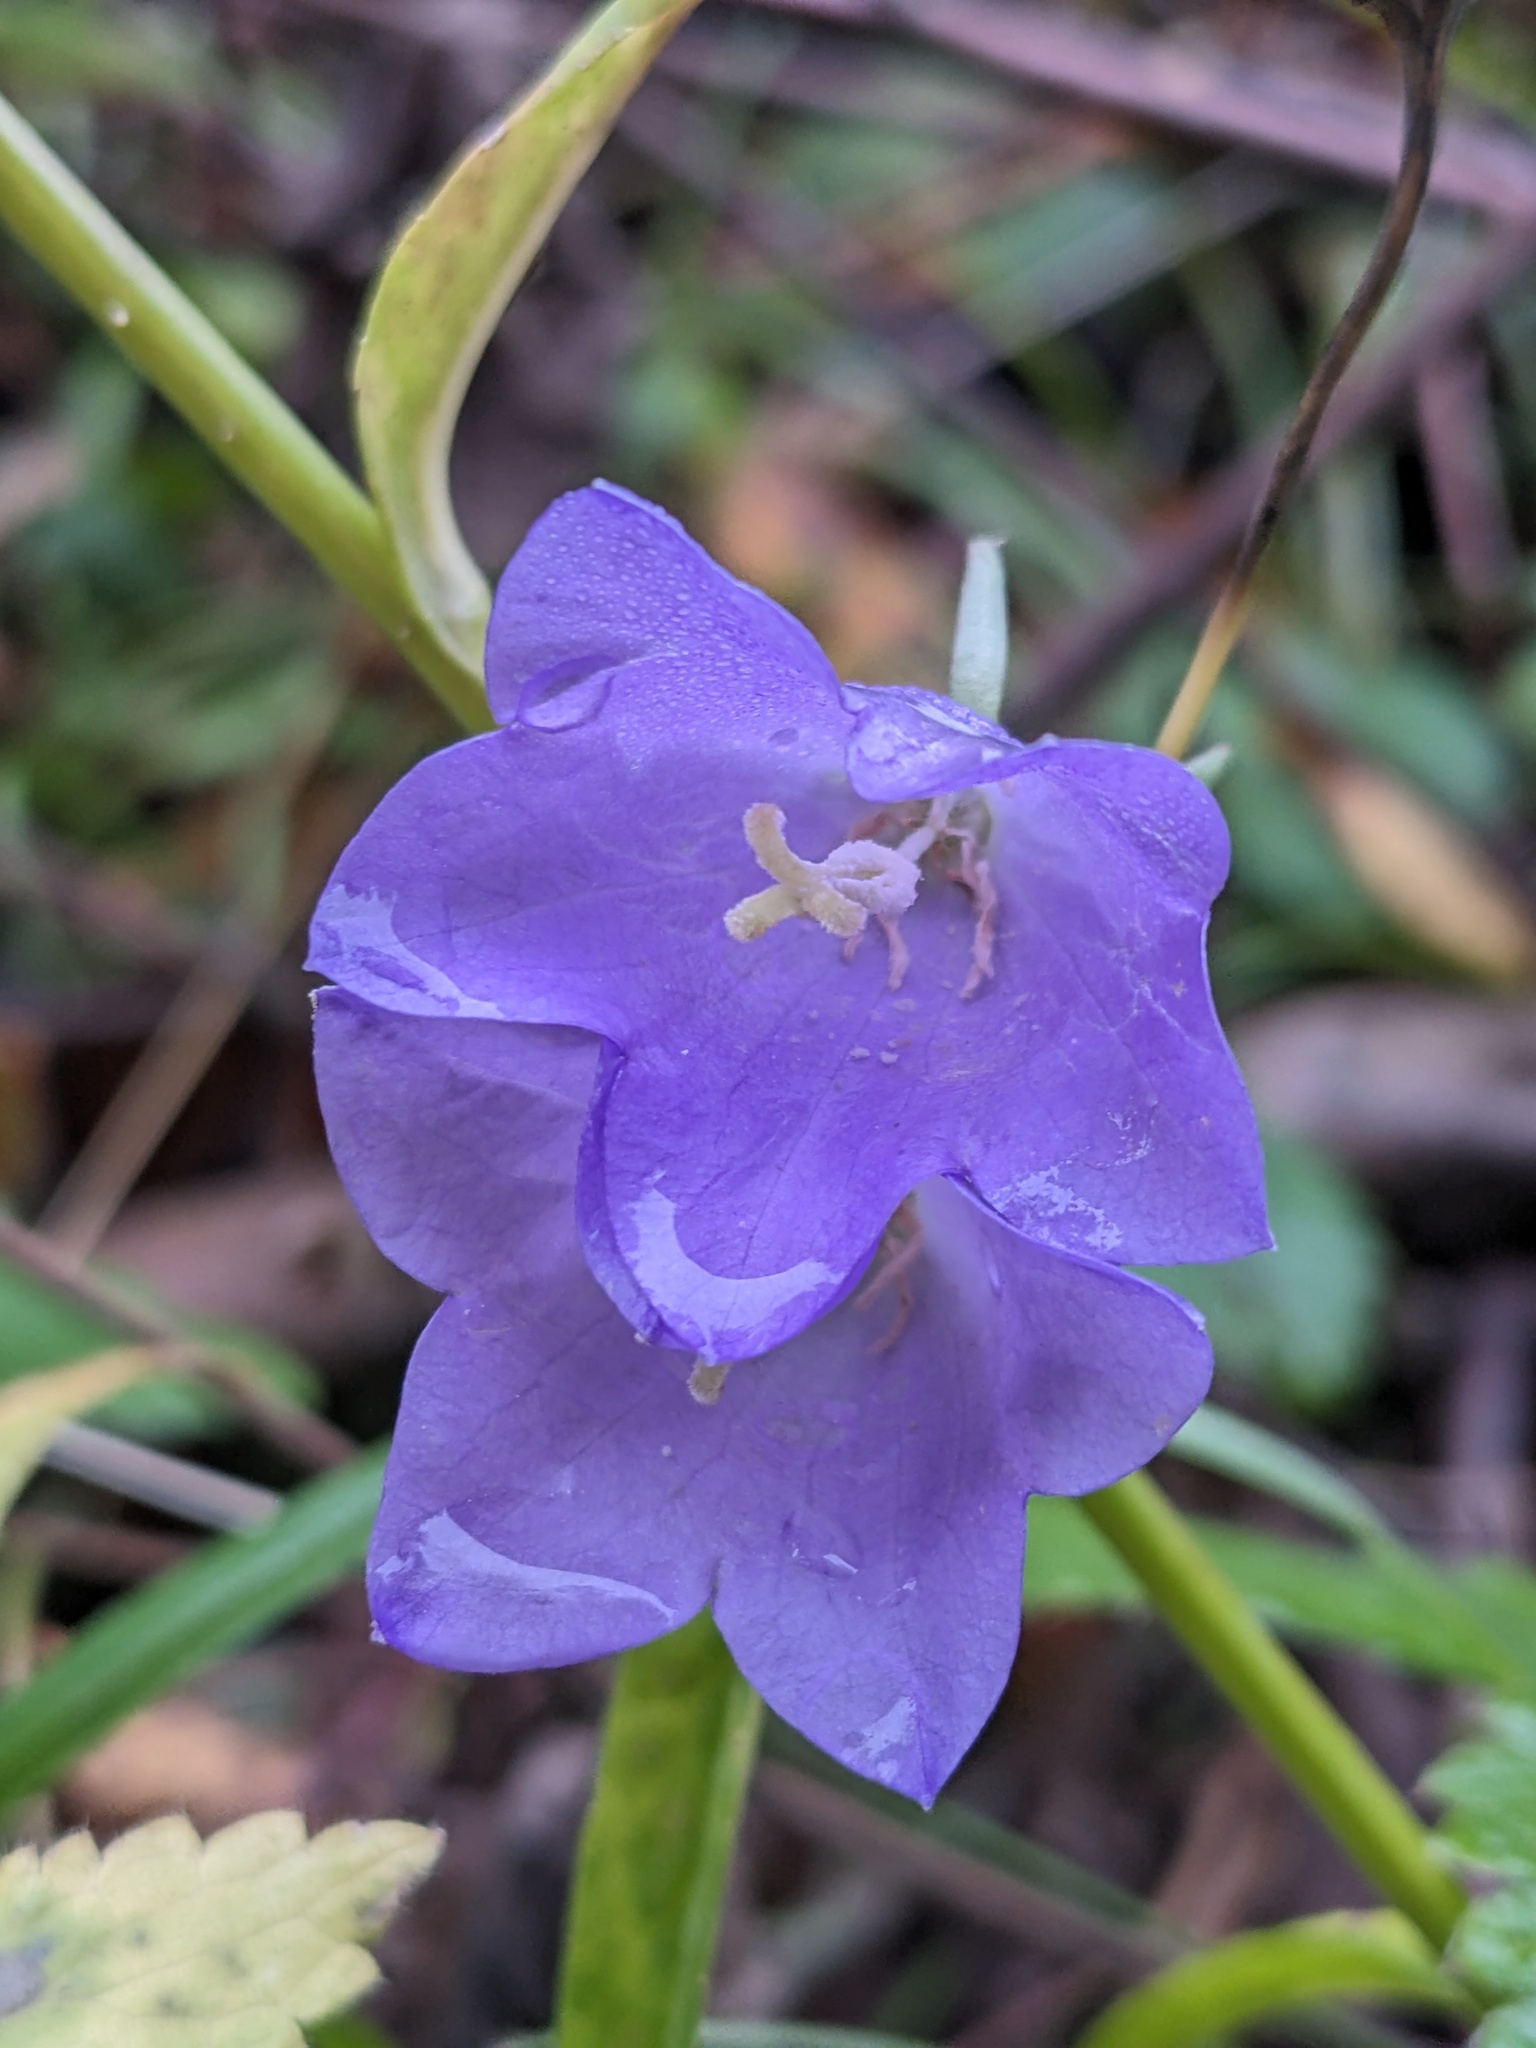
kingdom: Plantae
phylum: Tracheophyta
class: Magnoliopsida
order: Asterales
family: Campanulaceae
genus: Campanula
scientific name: Campanula persicifolia
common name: Peach-leaved bellflower
